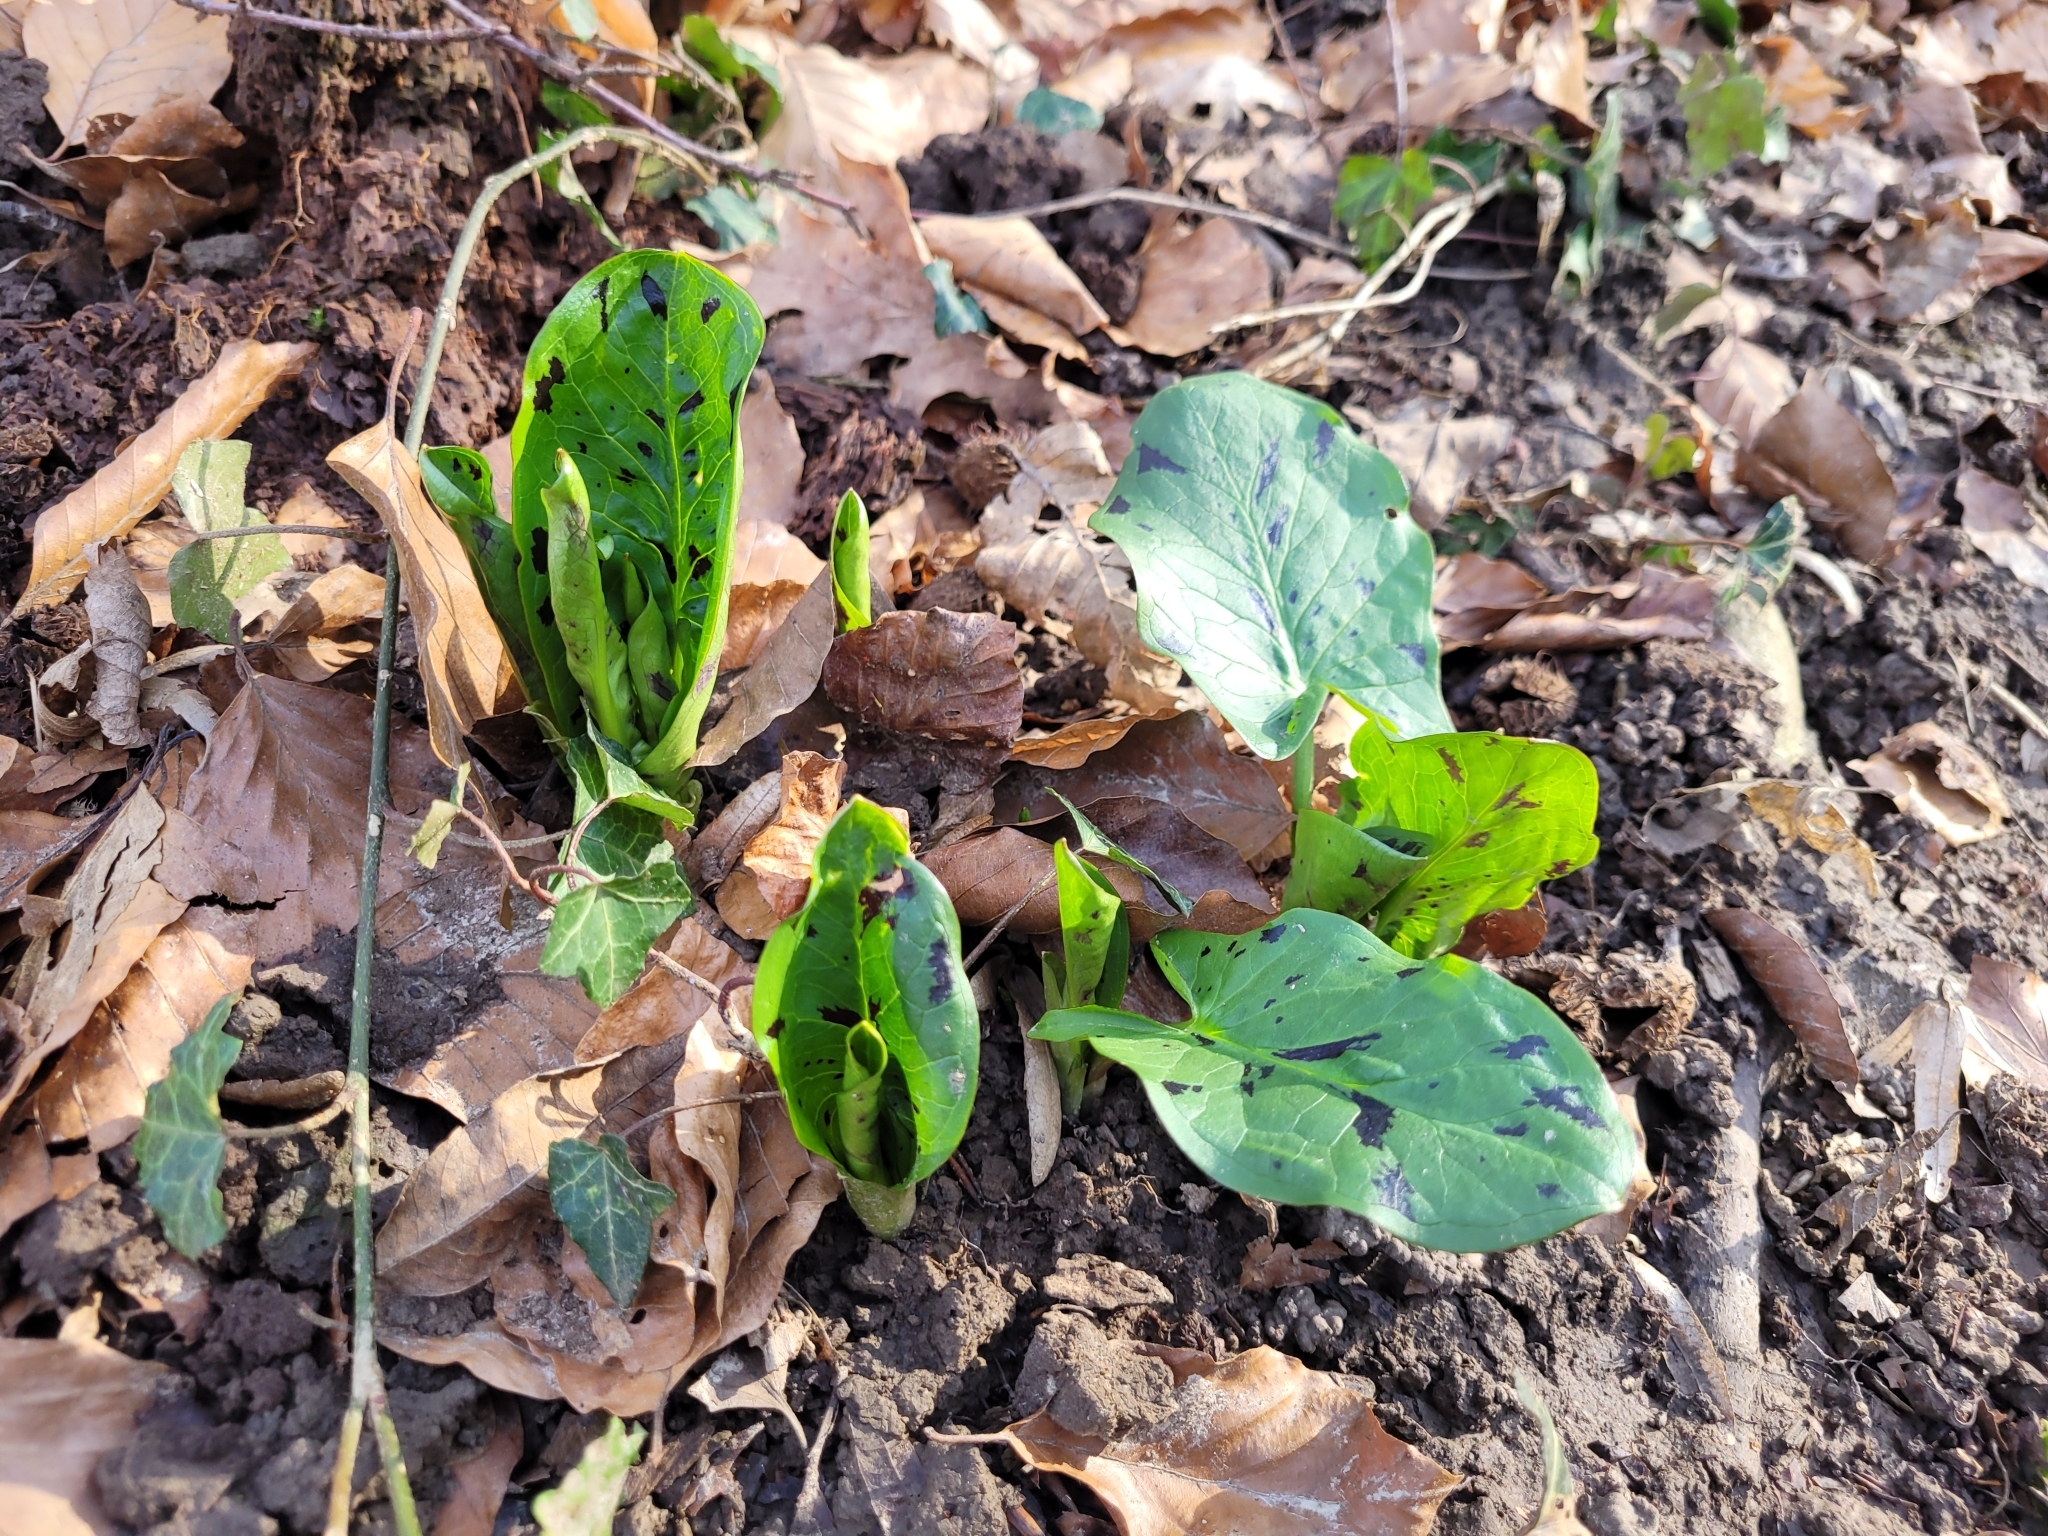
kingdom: Plantae
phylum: Tracheophyta
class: Liliopsida
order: Alismatales
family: Araceae
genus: Arum
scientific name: Arum maculatum
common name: Lords-and-ladies
